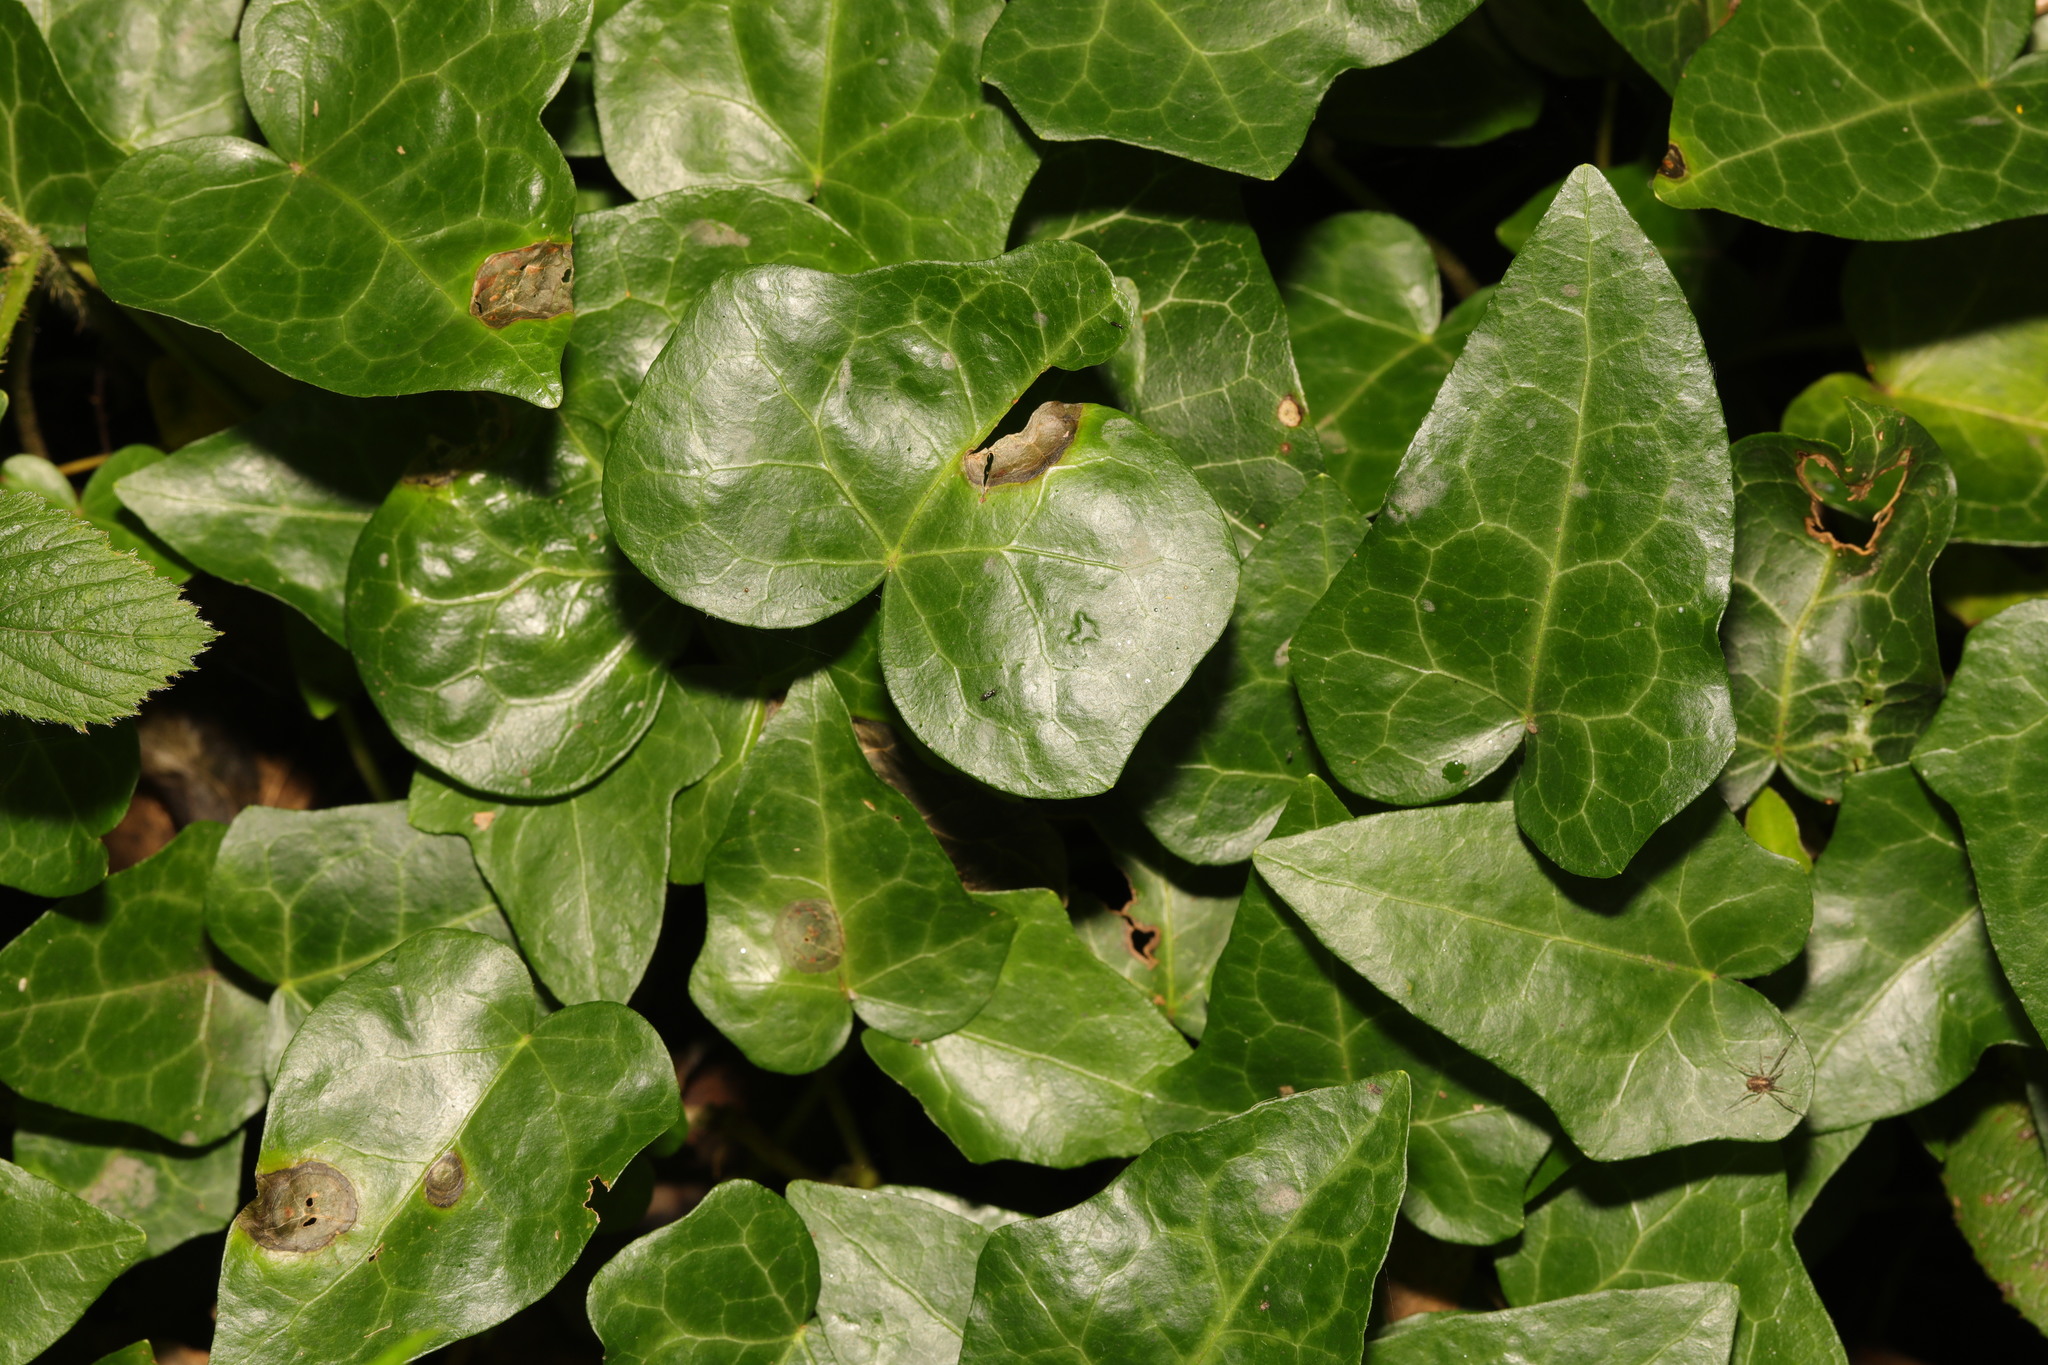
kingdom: Plantae
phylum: Tracheophyta
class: Magnoliopsida
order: Apiales
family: Araliaceae
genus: Hedera
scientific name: Hedera helix
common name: Ivy
